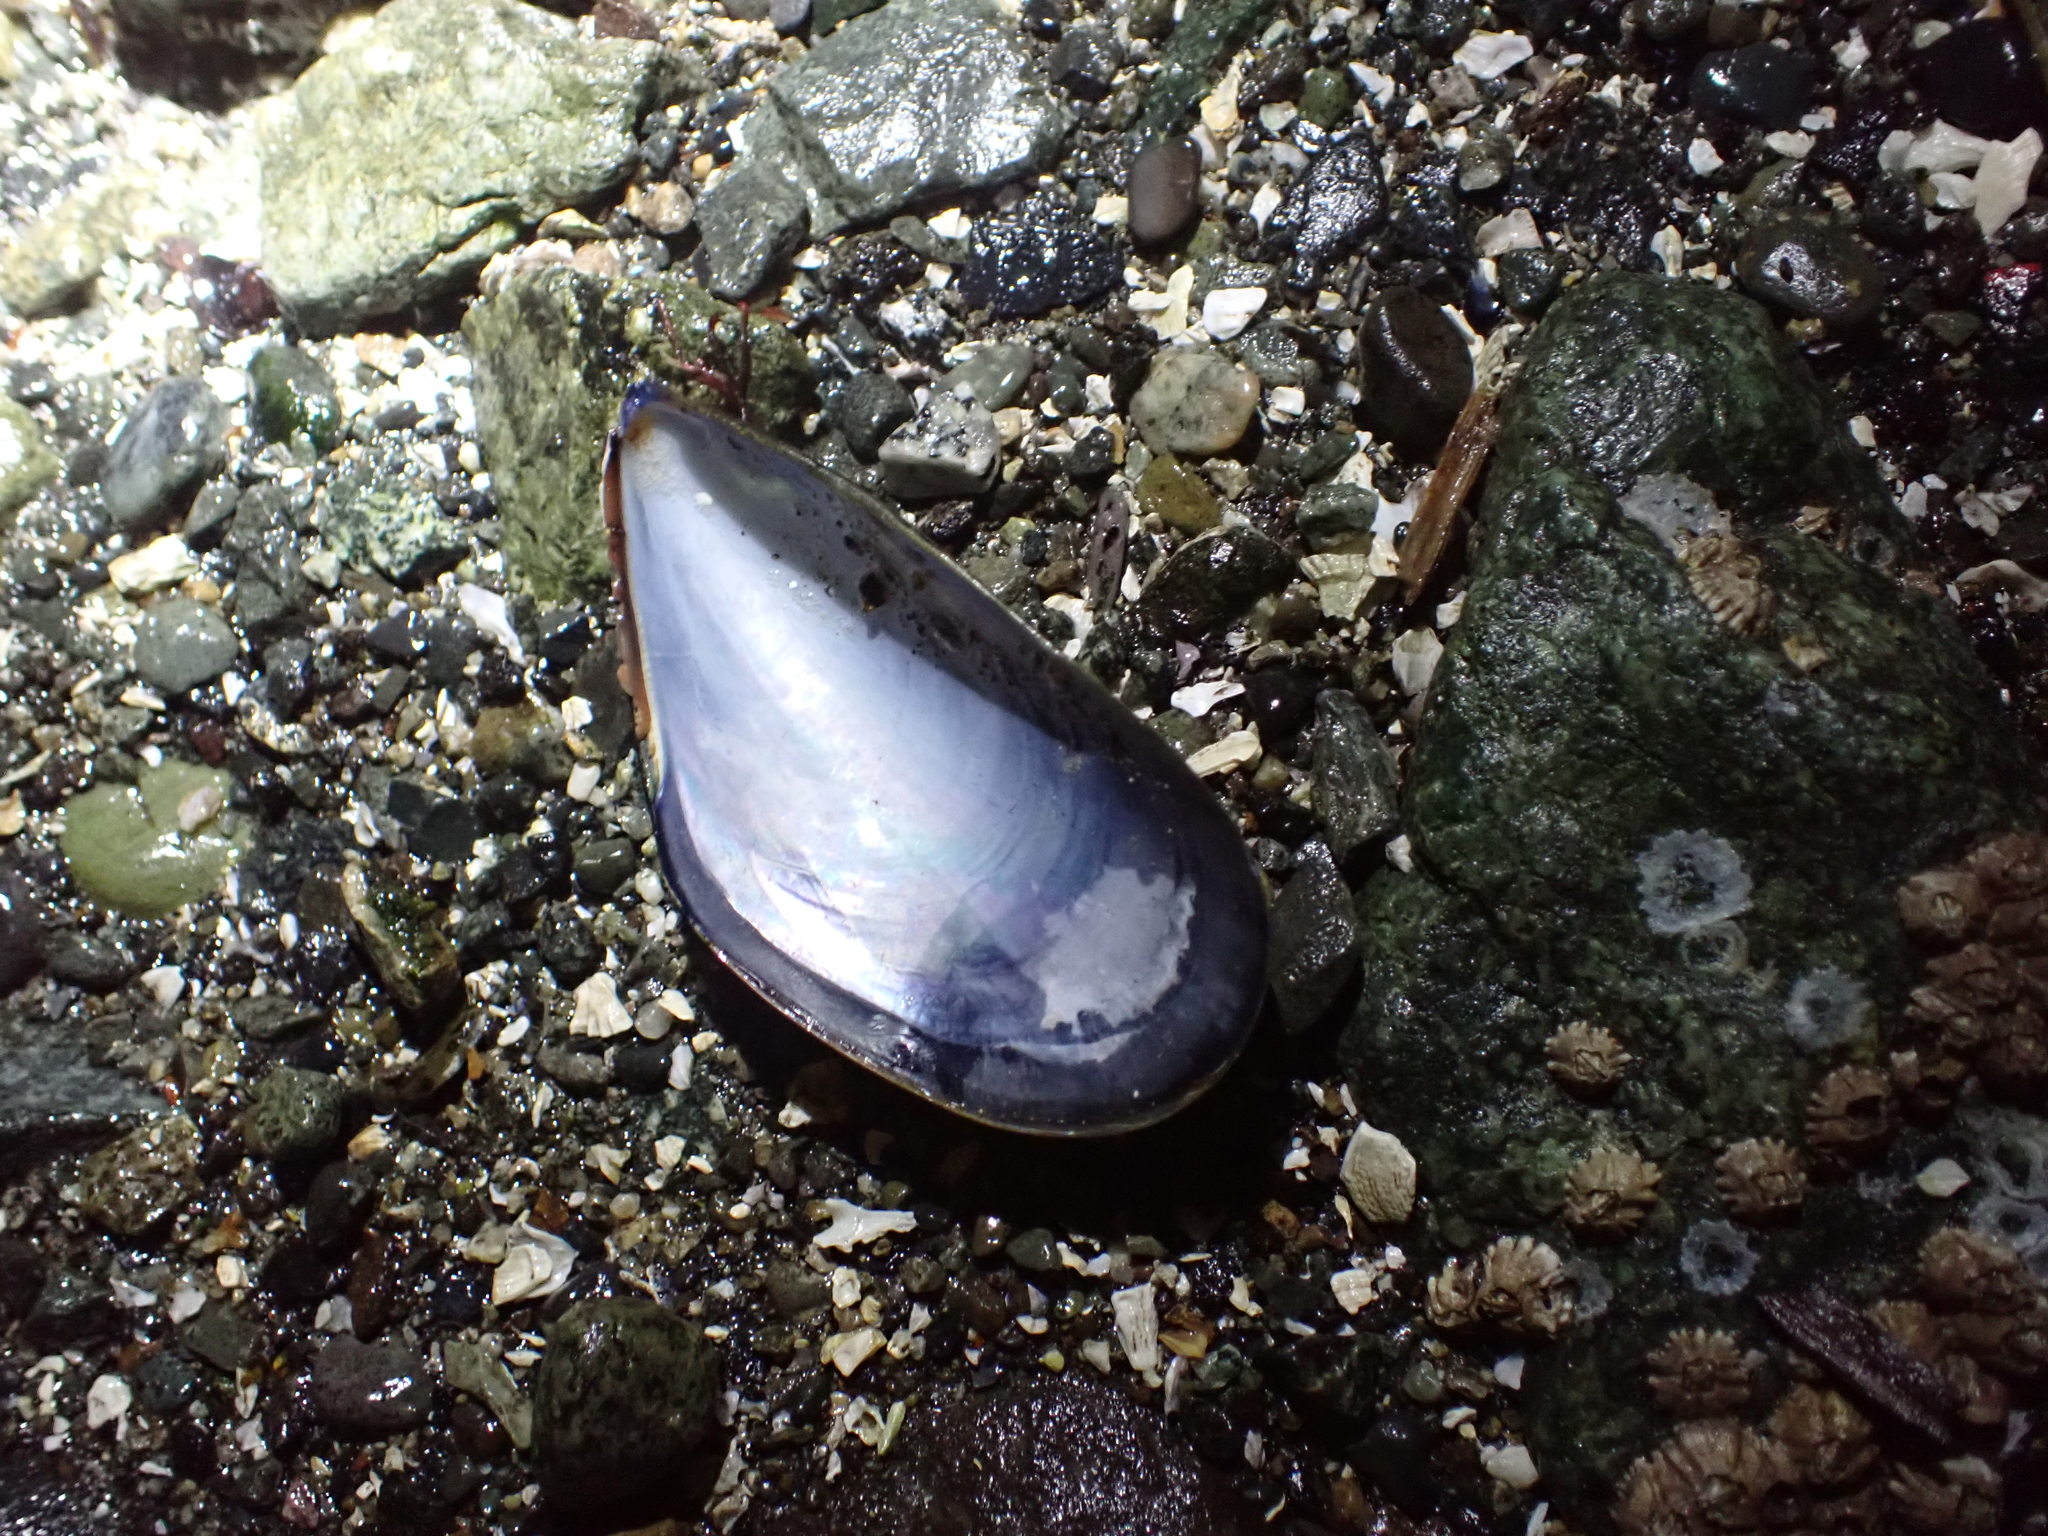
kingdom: Animalia
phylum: Mollusca
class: Bivalvia
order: Mytilida
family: Mytilidae
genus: Mytilus
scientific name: Mytilus
